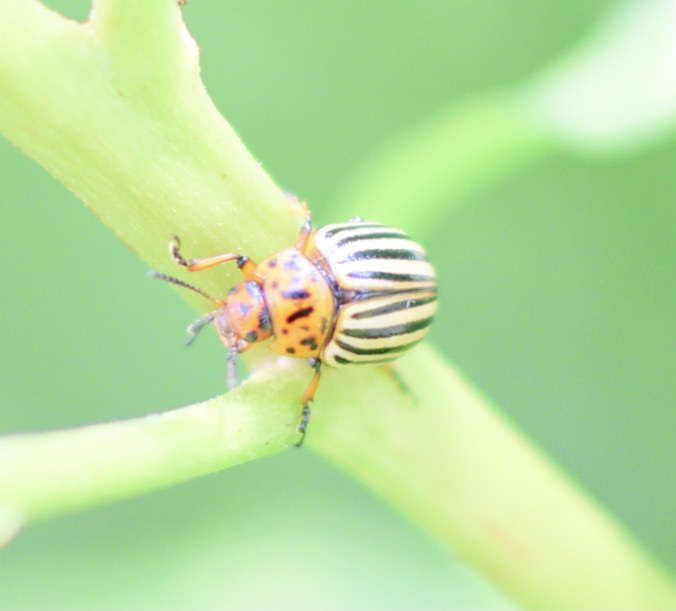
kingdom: Animalia
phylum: Arthropoda
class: Insecta
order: Coleoptera
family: Chrysomelidae
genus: Leptinotarsa
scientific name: Leptinotarsa decemlineata
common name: Colorado potato beetle
